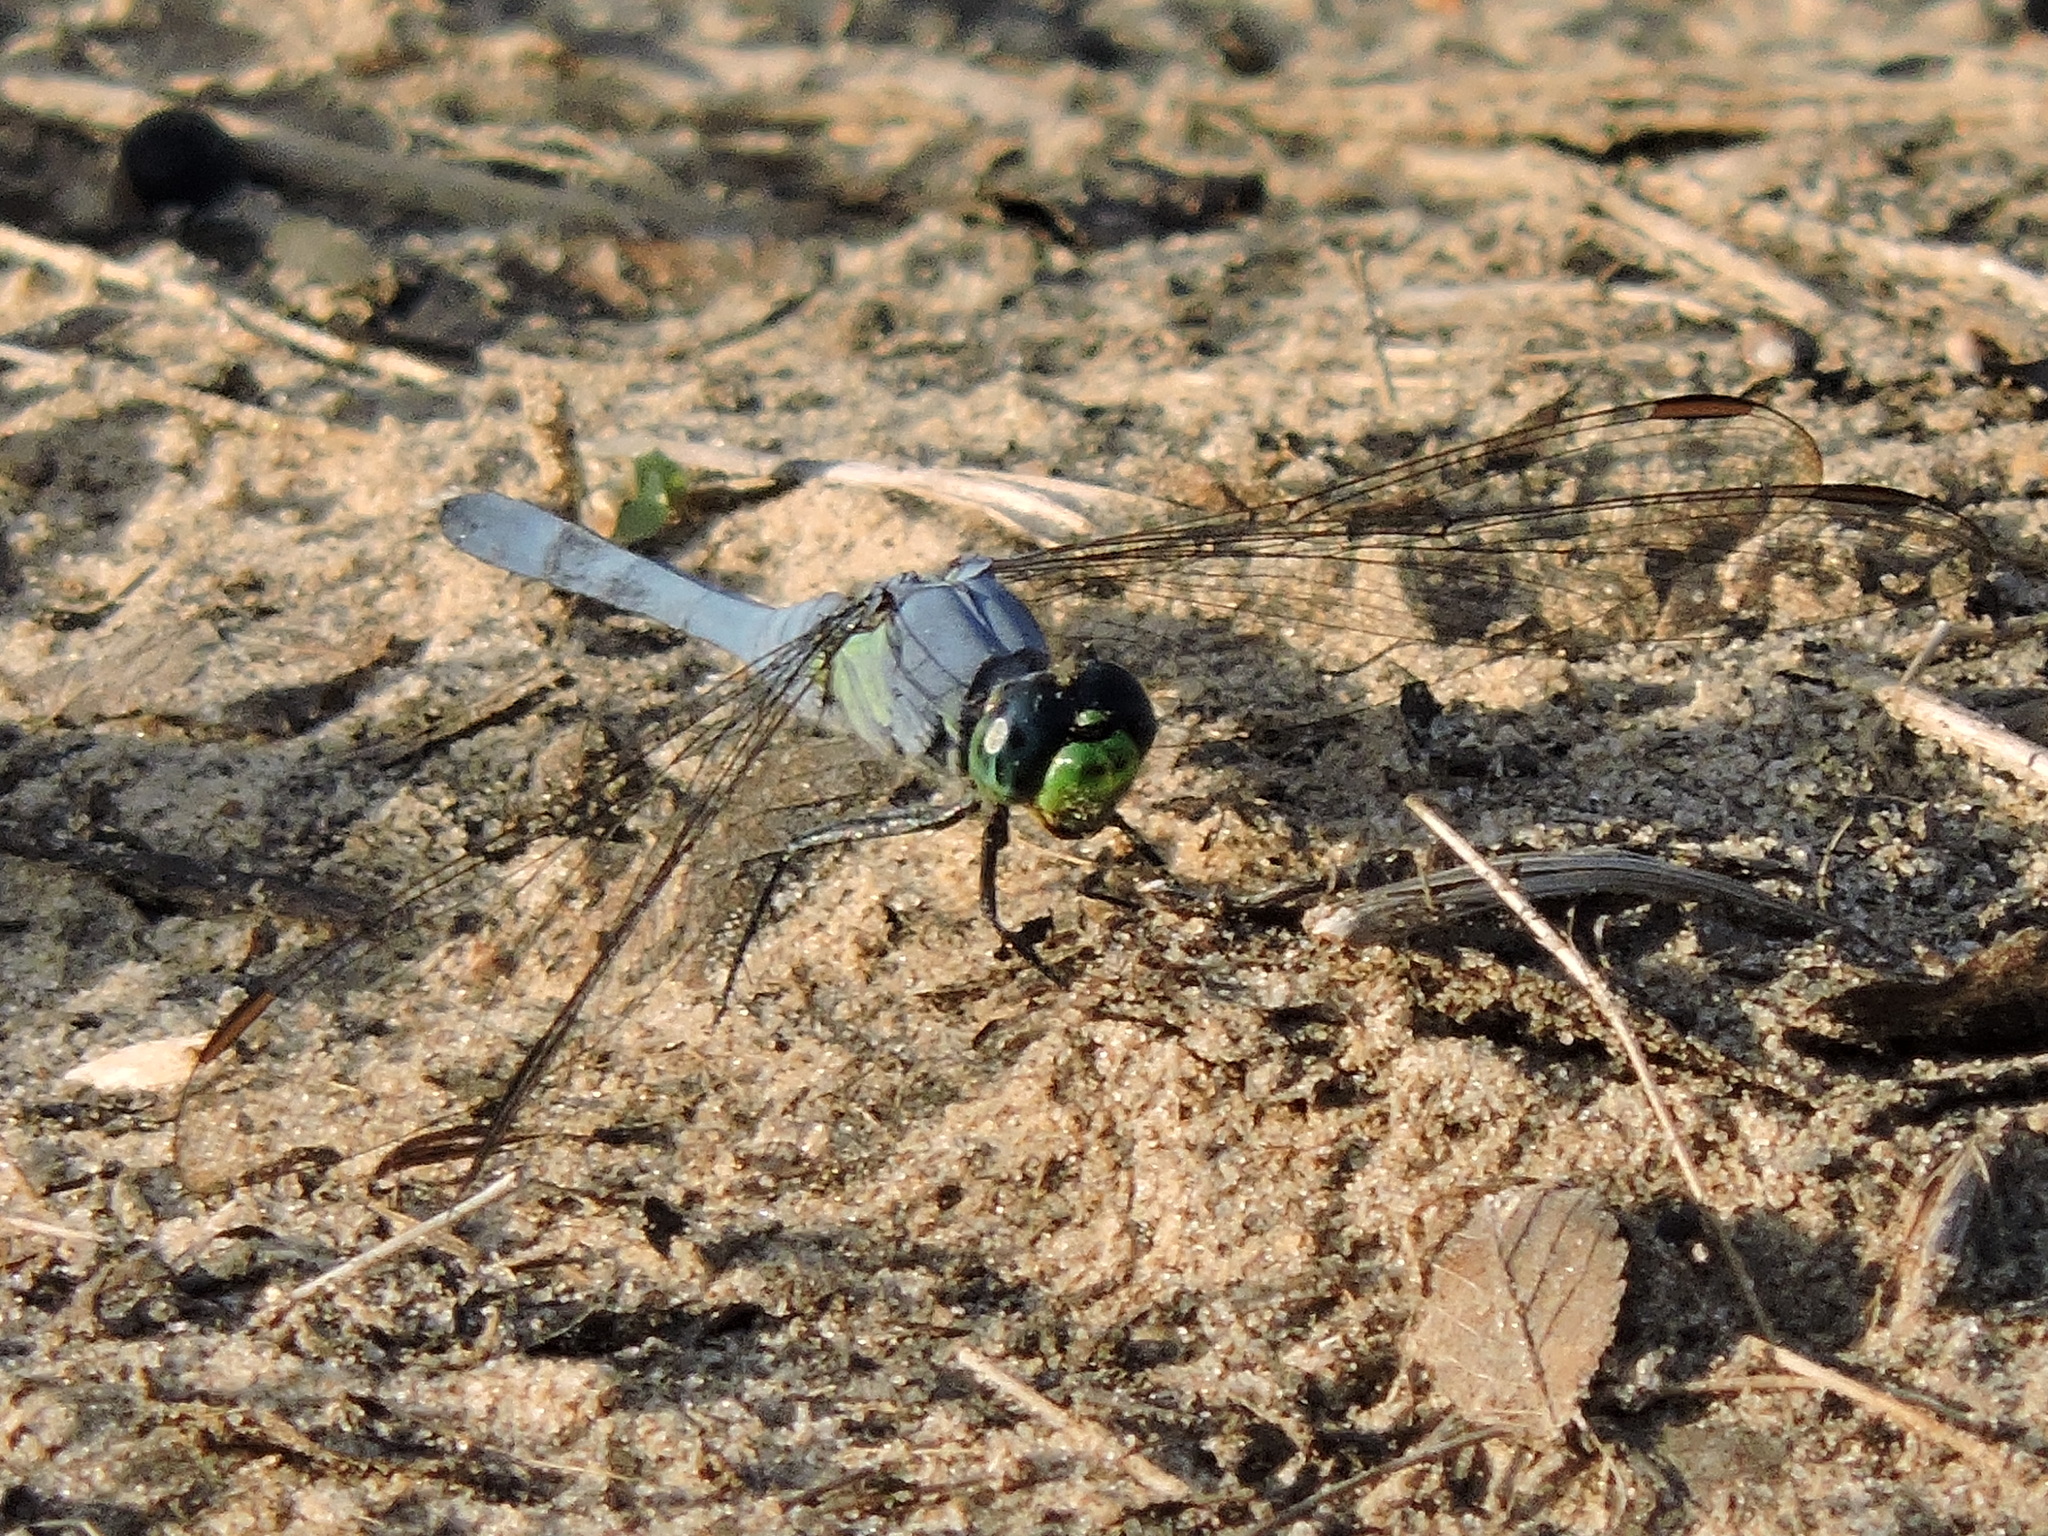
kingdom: Animalia
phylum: Arthropoda
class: Insecta
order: Odonata
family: Libellulidae
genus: Erythemis
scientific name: Erythemis simplicicollis
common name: Eastern pondhawk
